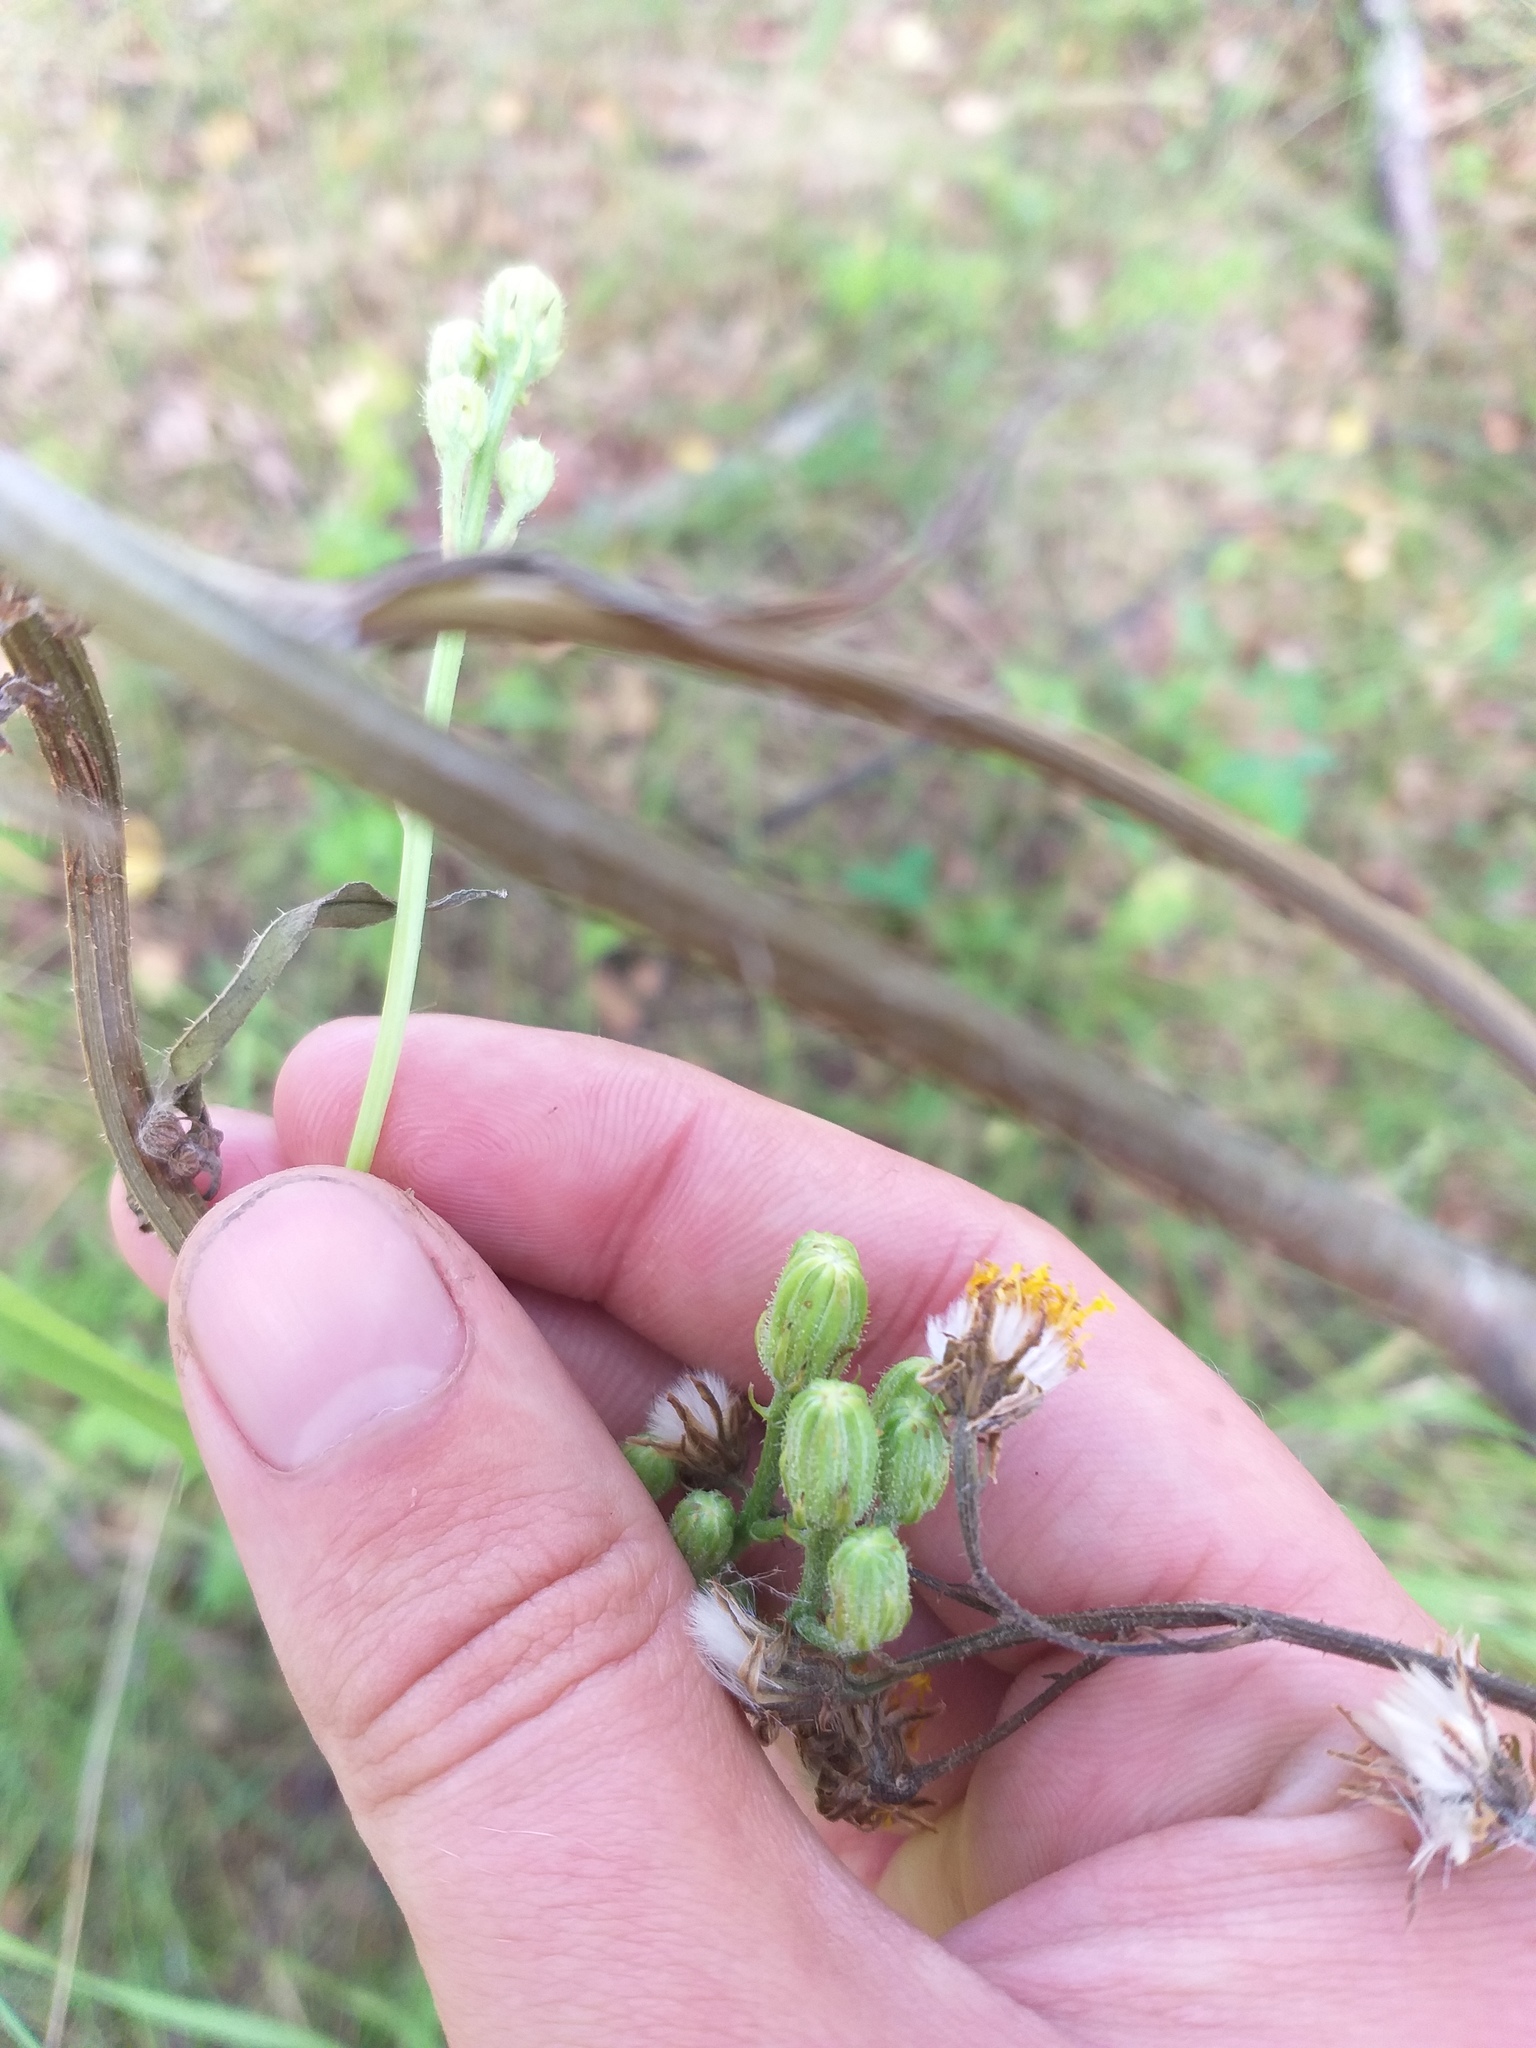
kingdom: Plantae
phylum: Tracheophyta
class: Magnoliopsida
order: Asterales
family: Asteraceae
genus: Crepis
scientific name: Crepis biennis
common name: Rough hawk's-beard
